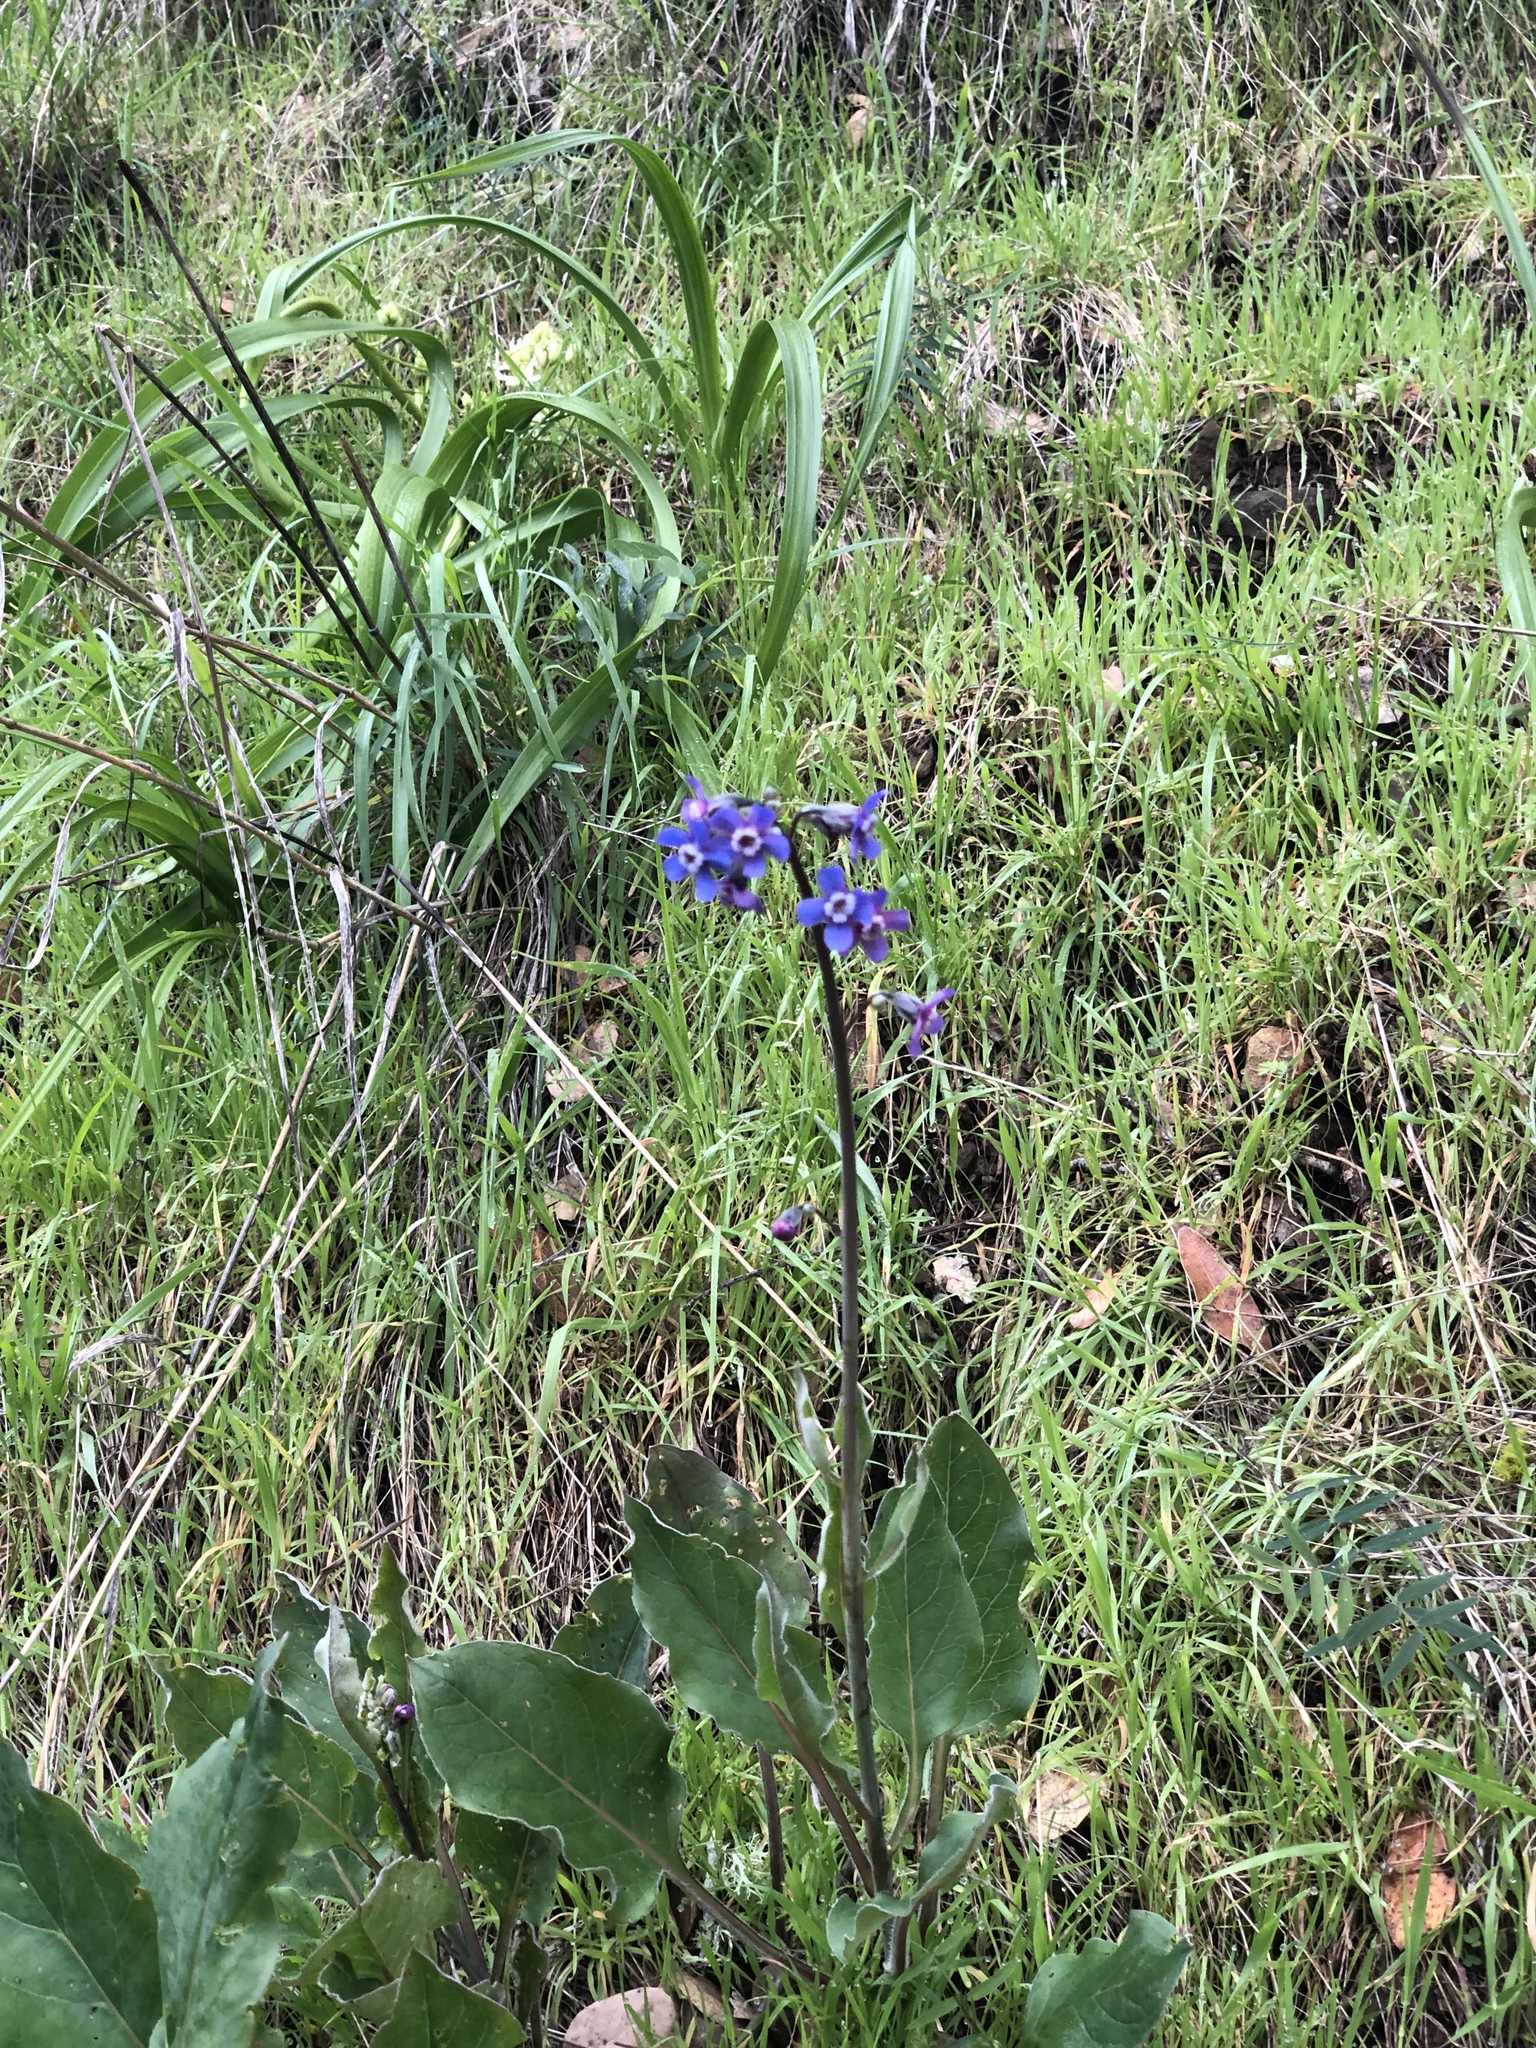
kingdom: Plantae
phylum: Tracheophyta
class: Magnoliopsida
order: Boraginales
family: Boraginaceae
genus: Adelinia
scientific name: Adelinia grande
